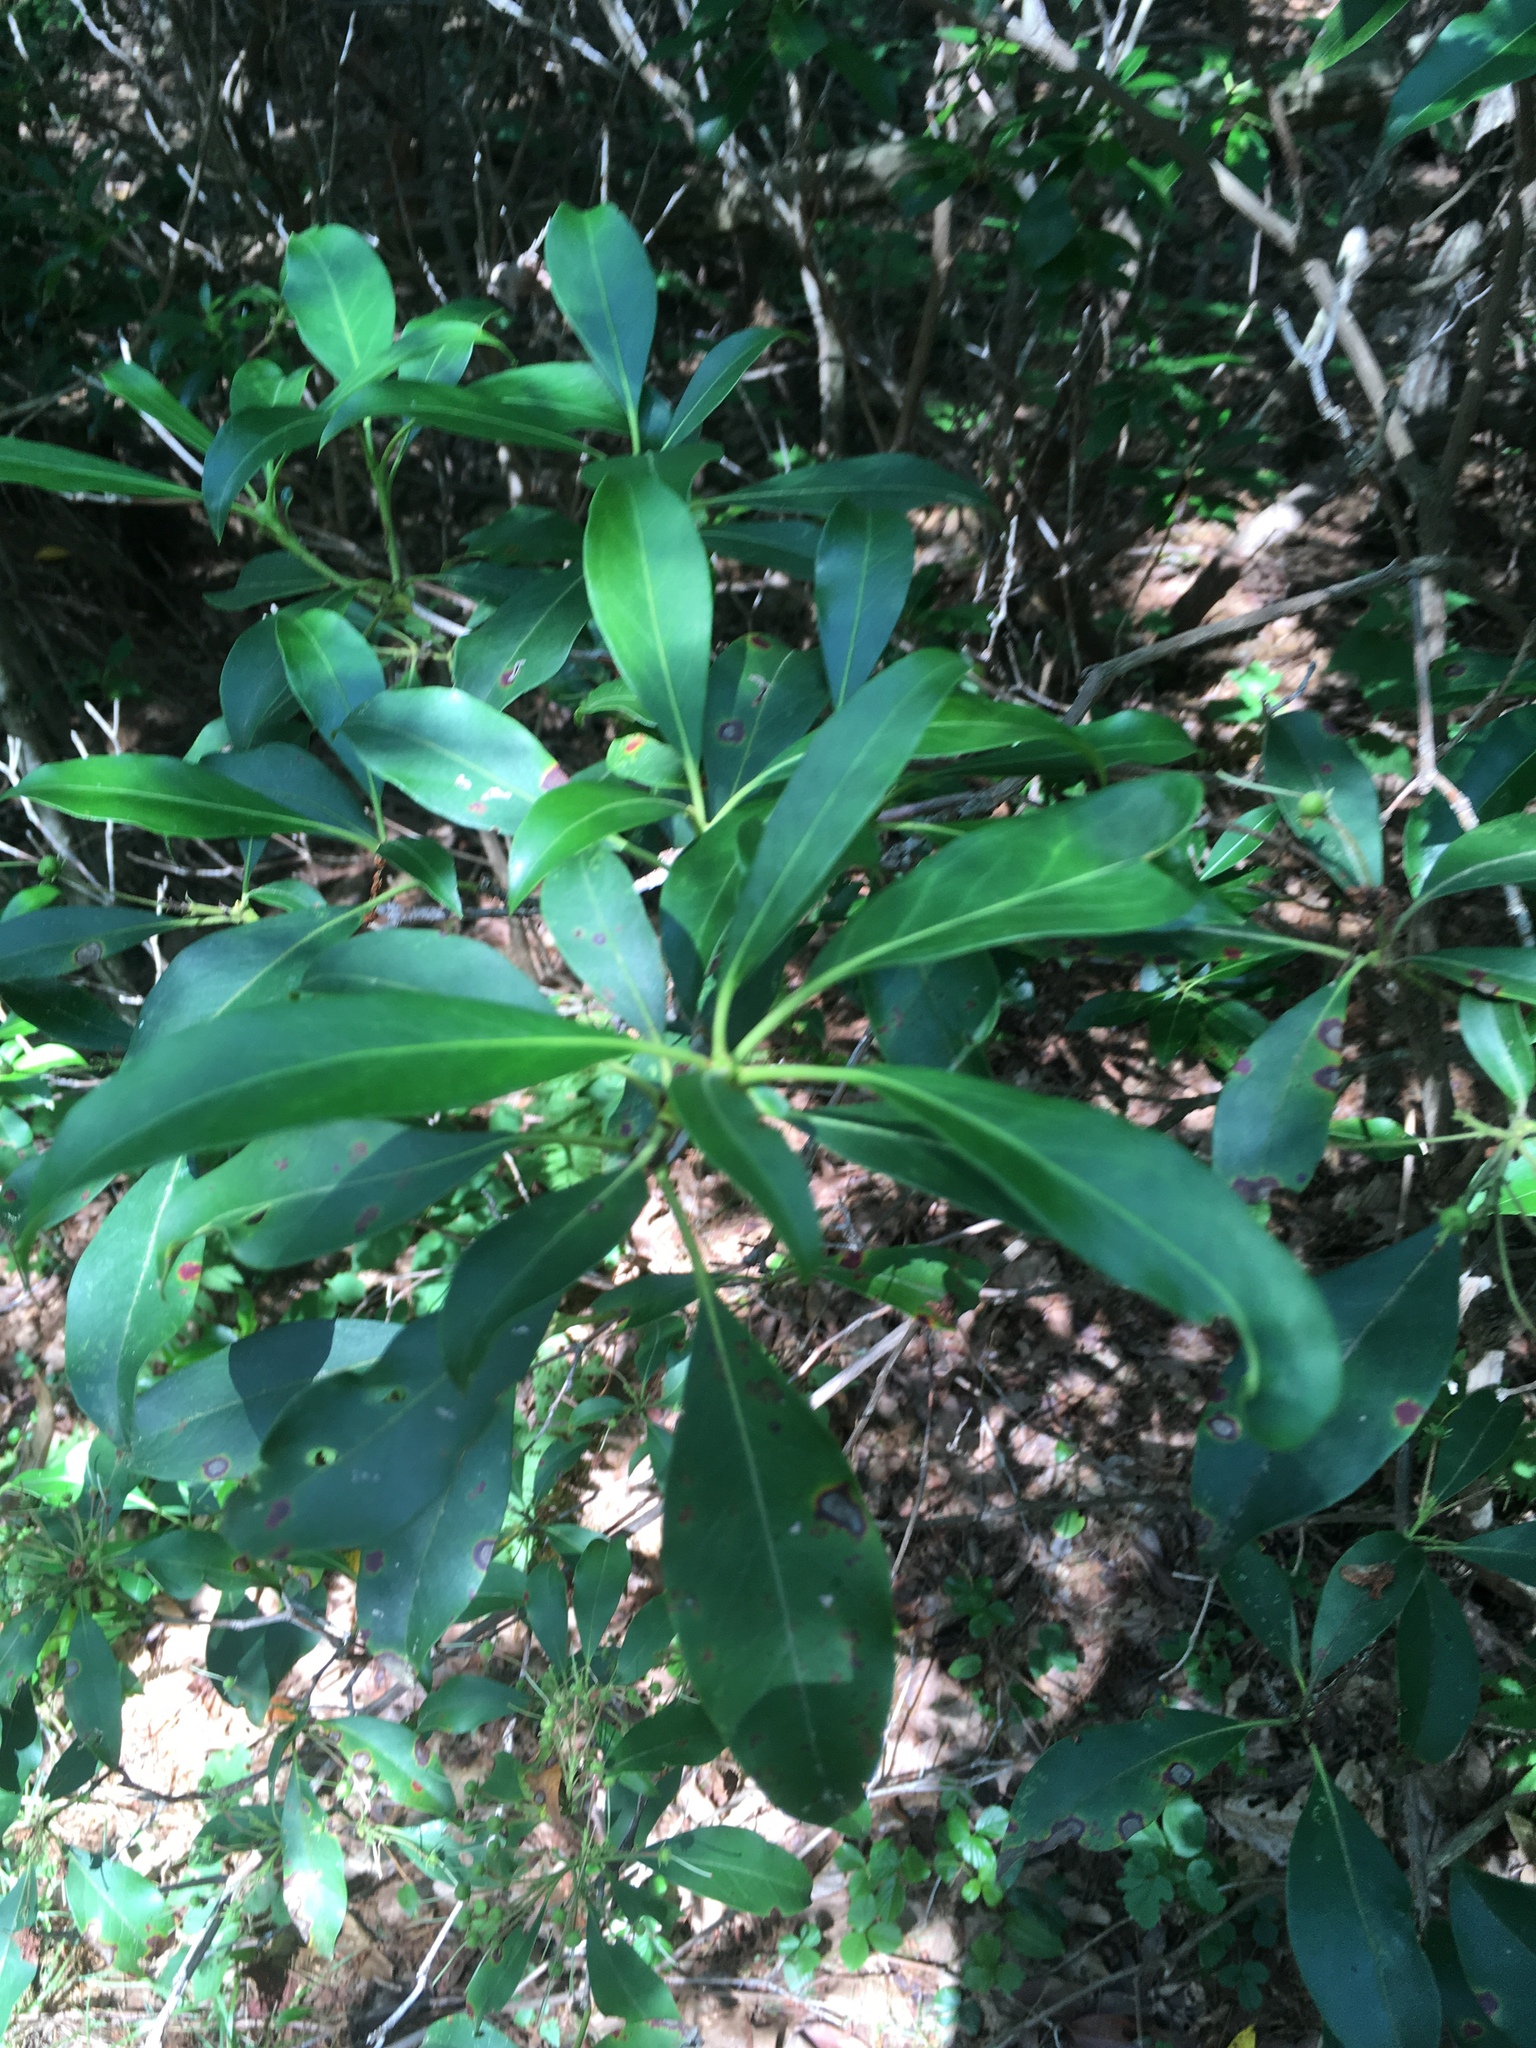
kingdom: Plantae
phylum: Tracheophyta
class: Magnoliopsida
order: Ericales
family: Ericaceae
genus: Kalmia
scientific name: Kalmia latifolia
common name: Mountain-laurel
